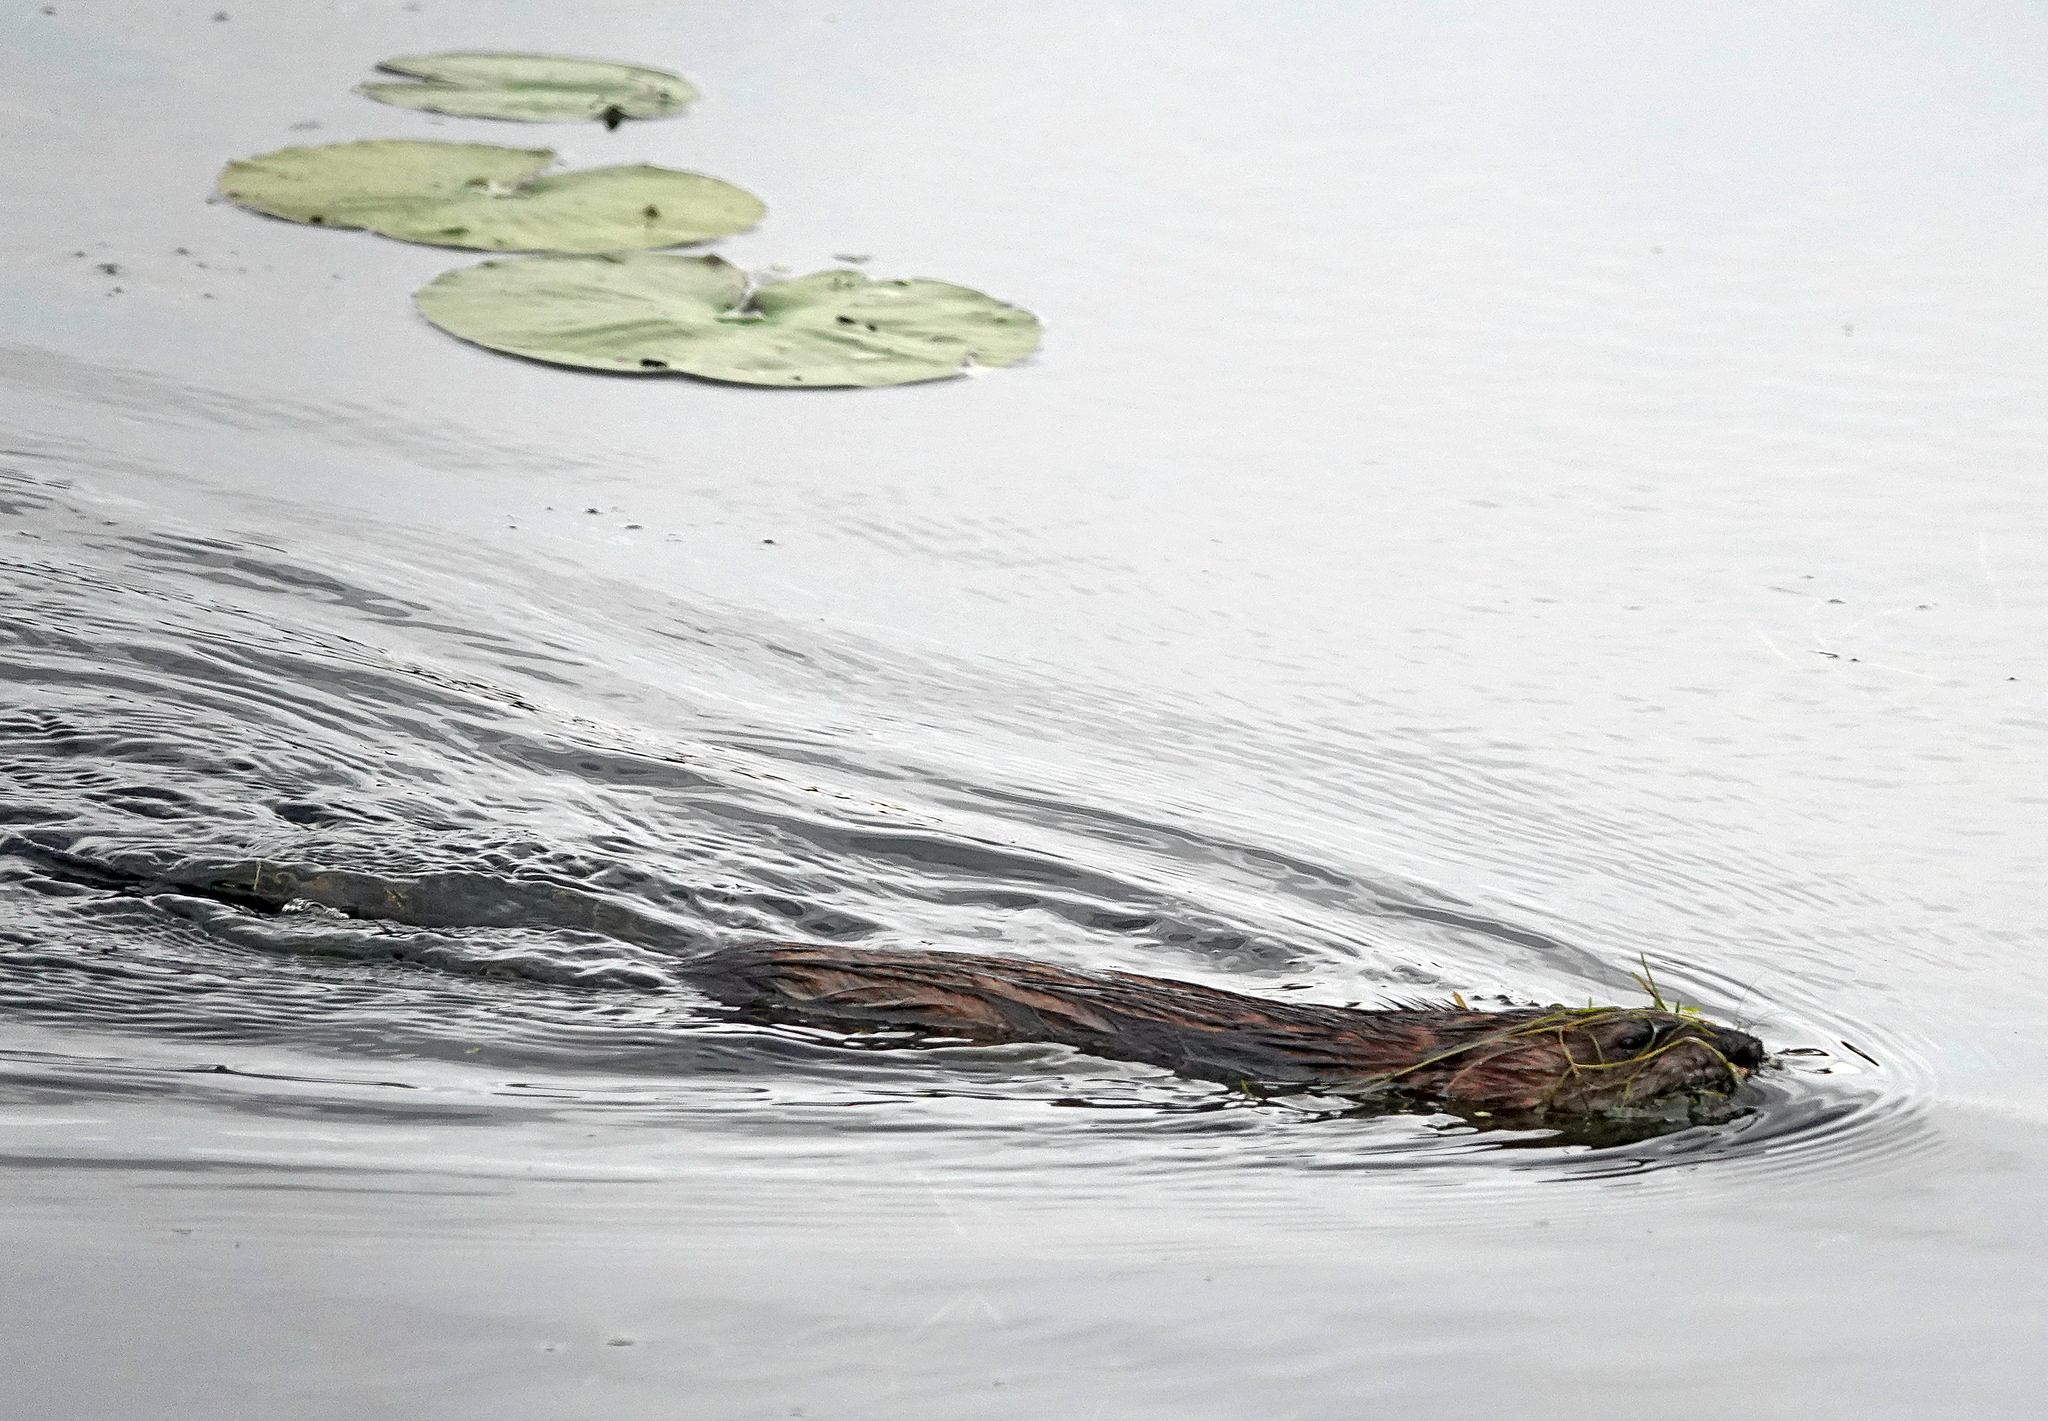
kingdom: Animalia
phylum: Chordata
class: Mammalia
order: Rodentia
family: Cricetidae
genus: Ondatra
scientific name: Ondatra zibethicus
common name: Muskrat
